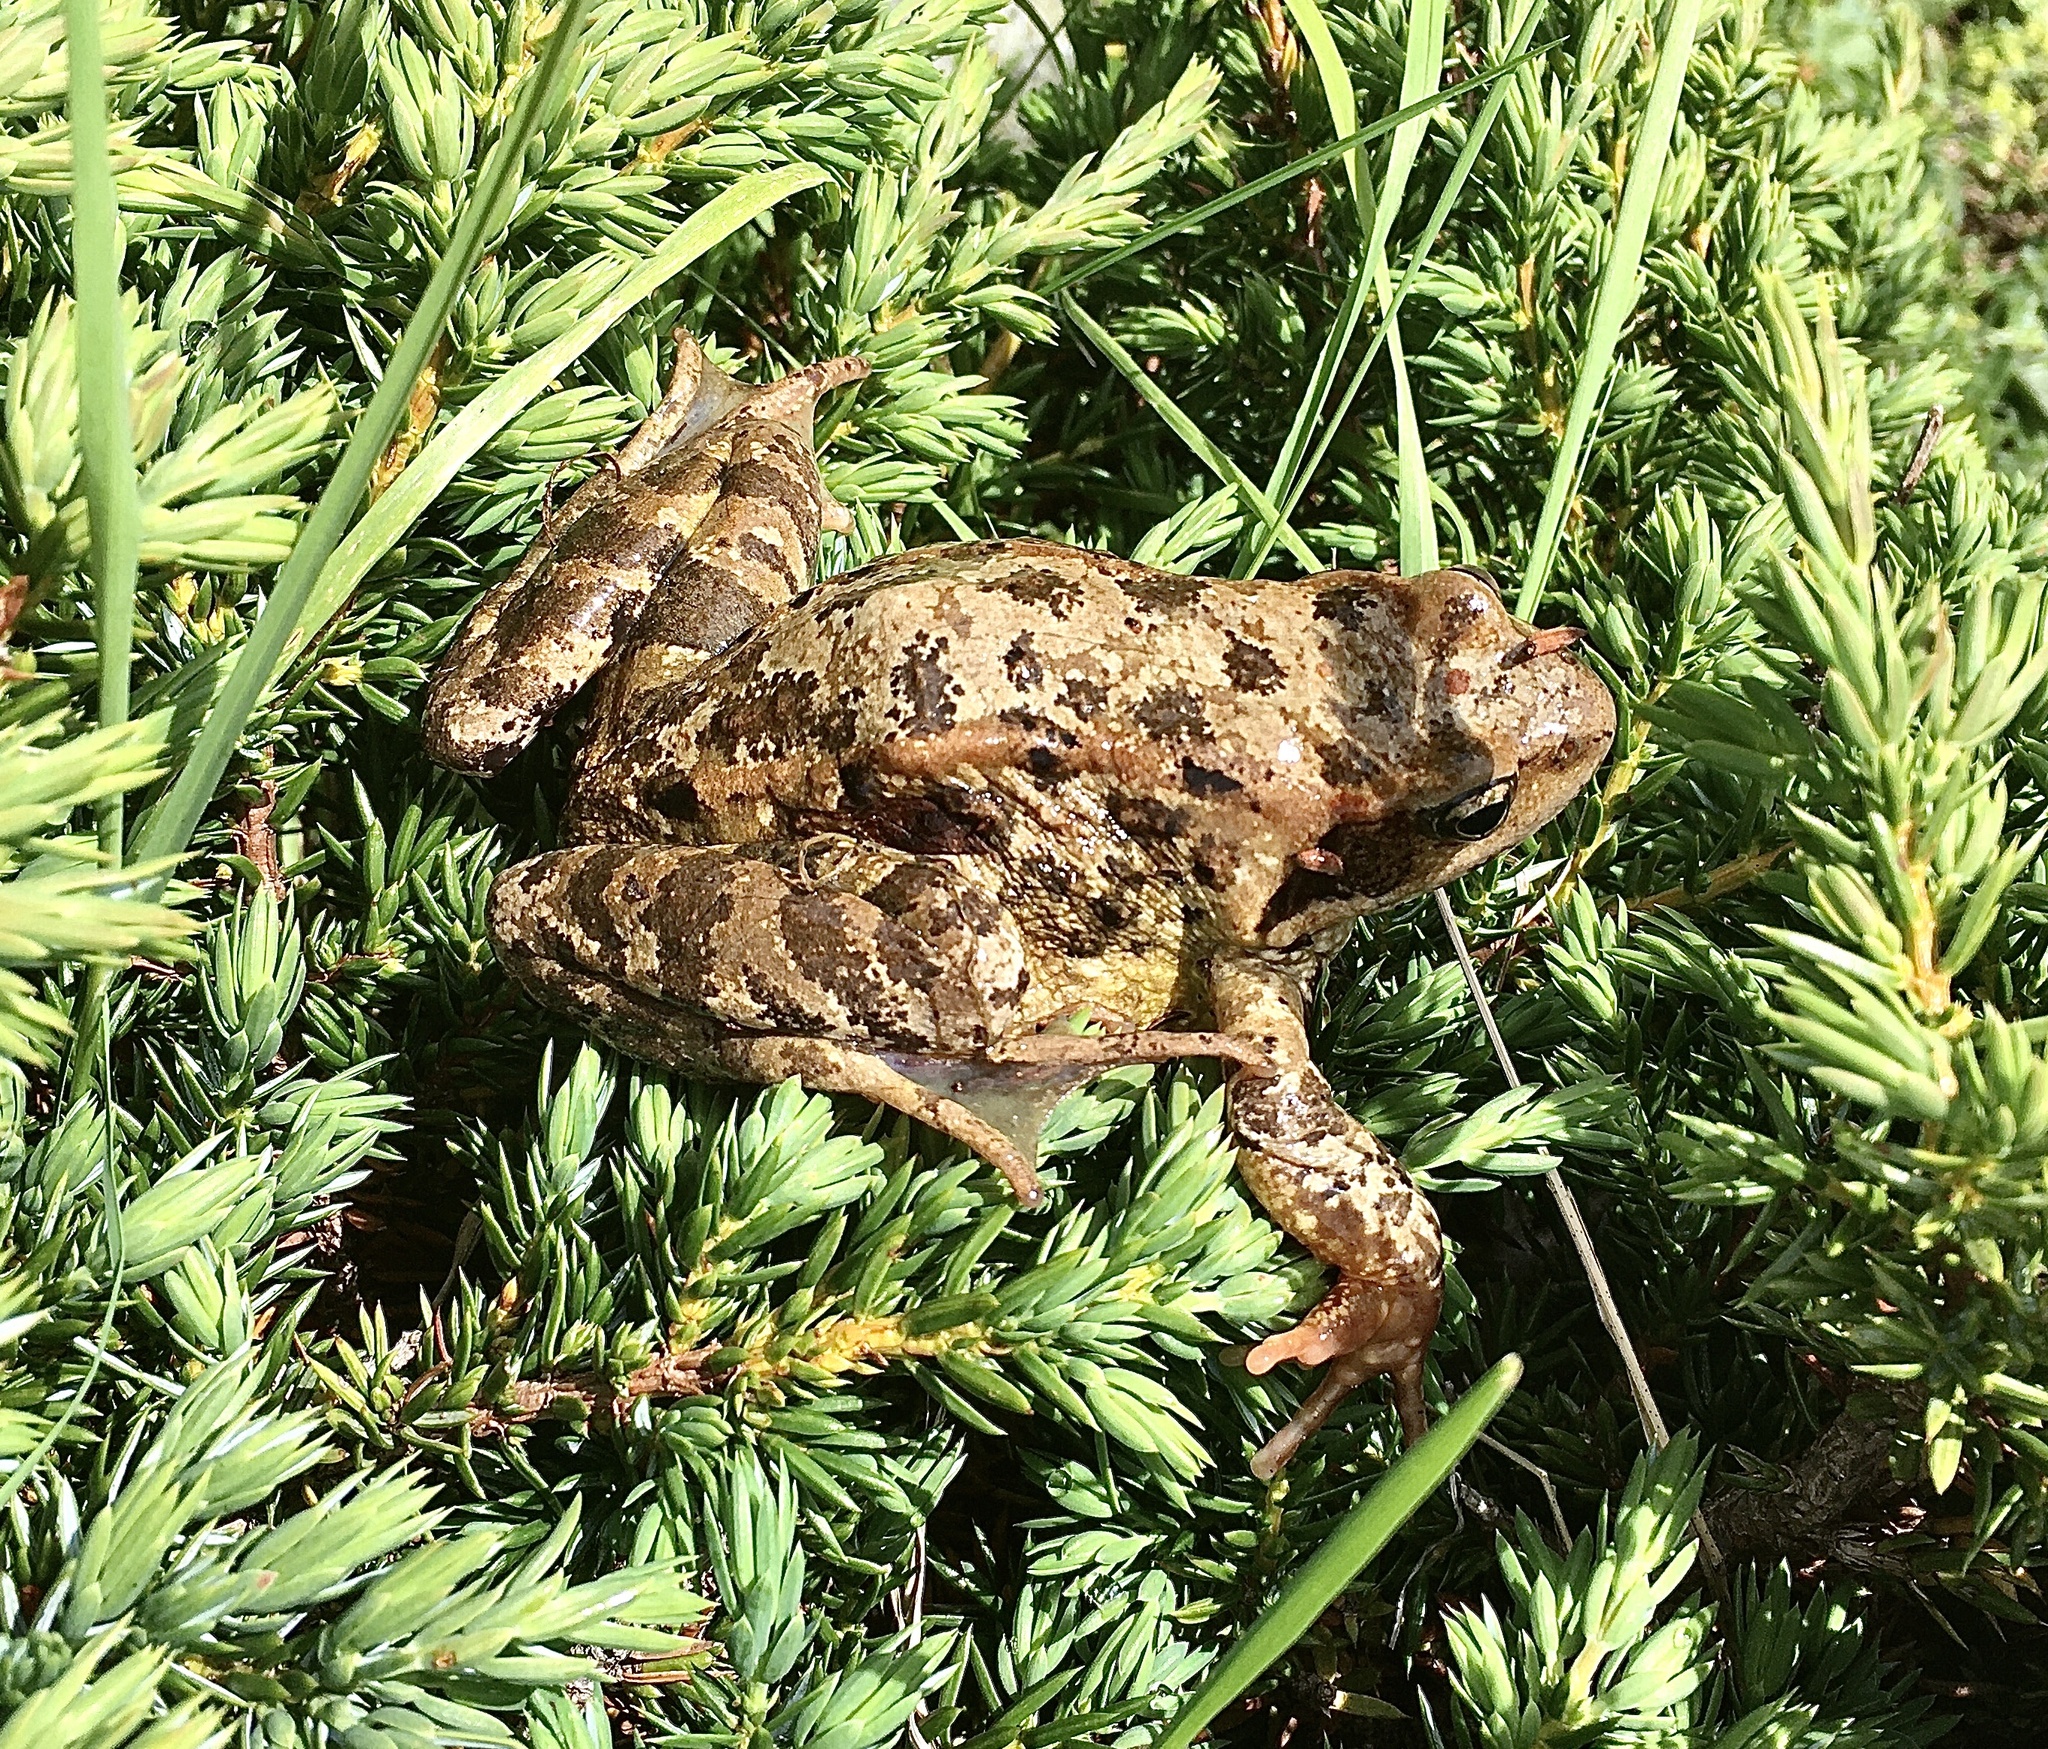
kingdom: Animalia
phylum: Chordata
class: Amphibia
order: Anura
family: Ranidae
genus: Rana
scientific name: Rana temporaria
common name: Common frog
